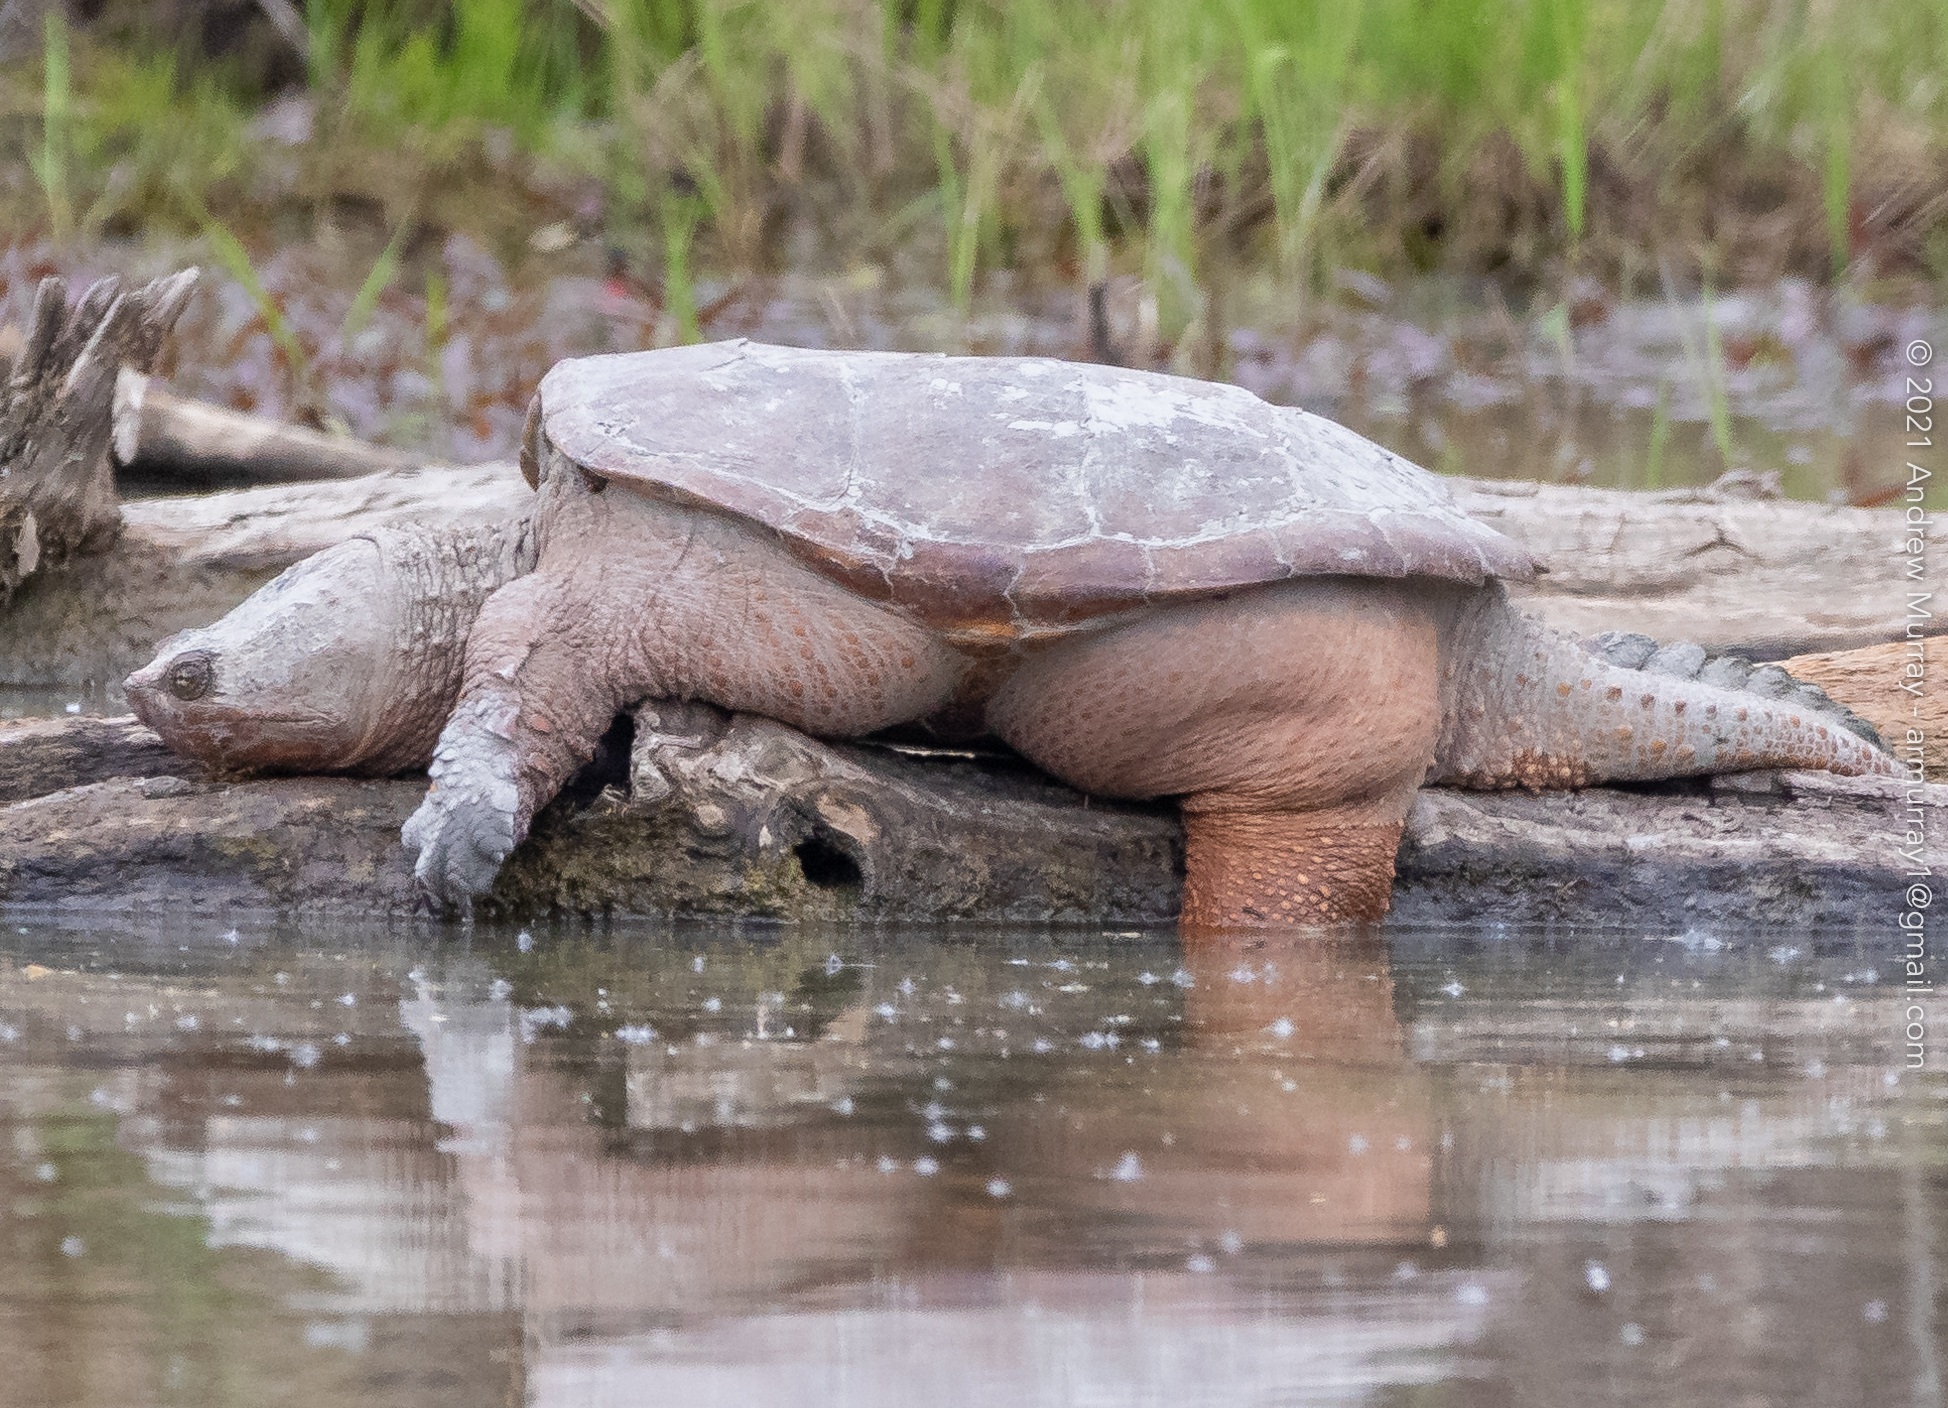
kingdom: Animalia
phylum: Chordata
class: Testudines
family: Chelydridae
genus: Chelydra
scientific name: Chelydra serpentina
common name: Common snapping turtle
